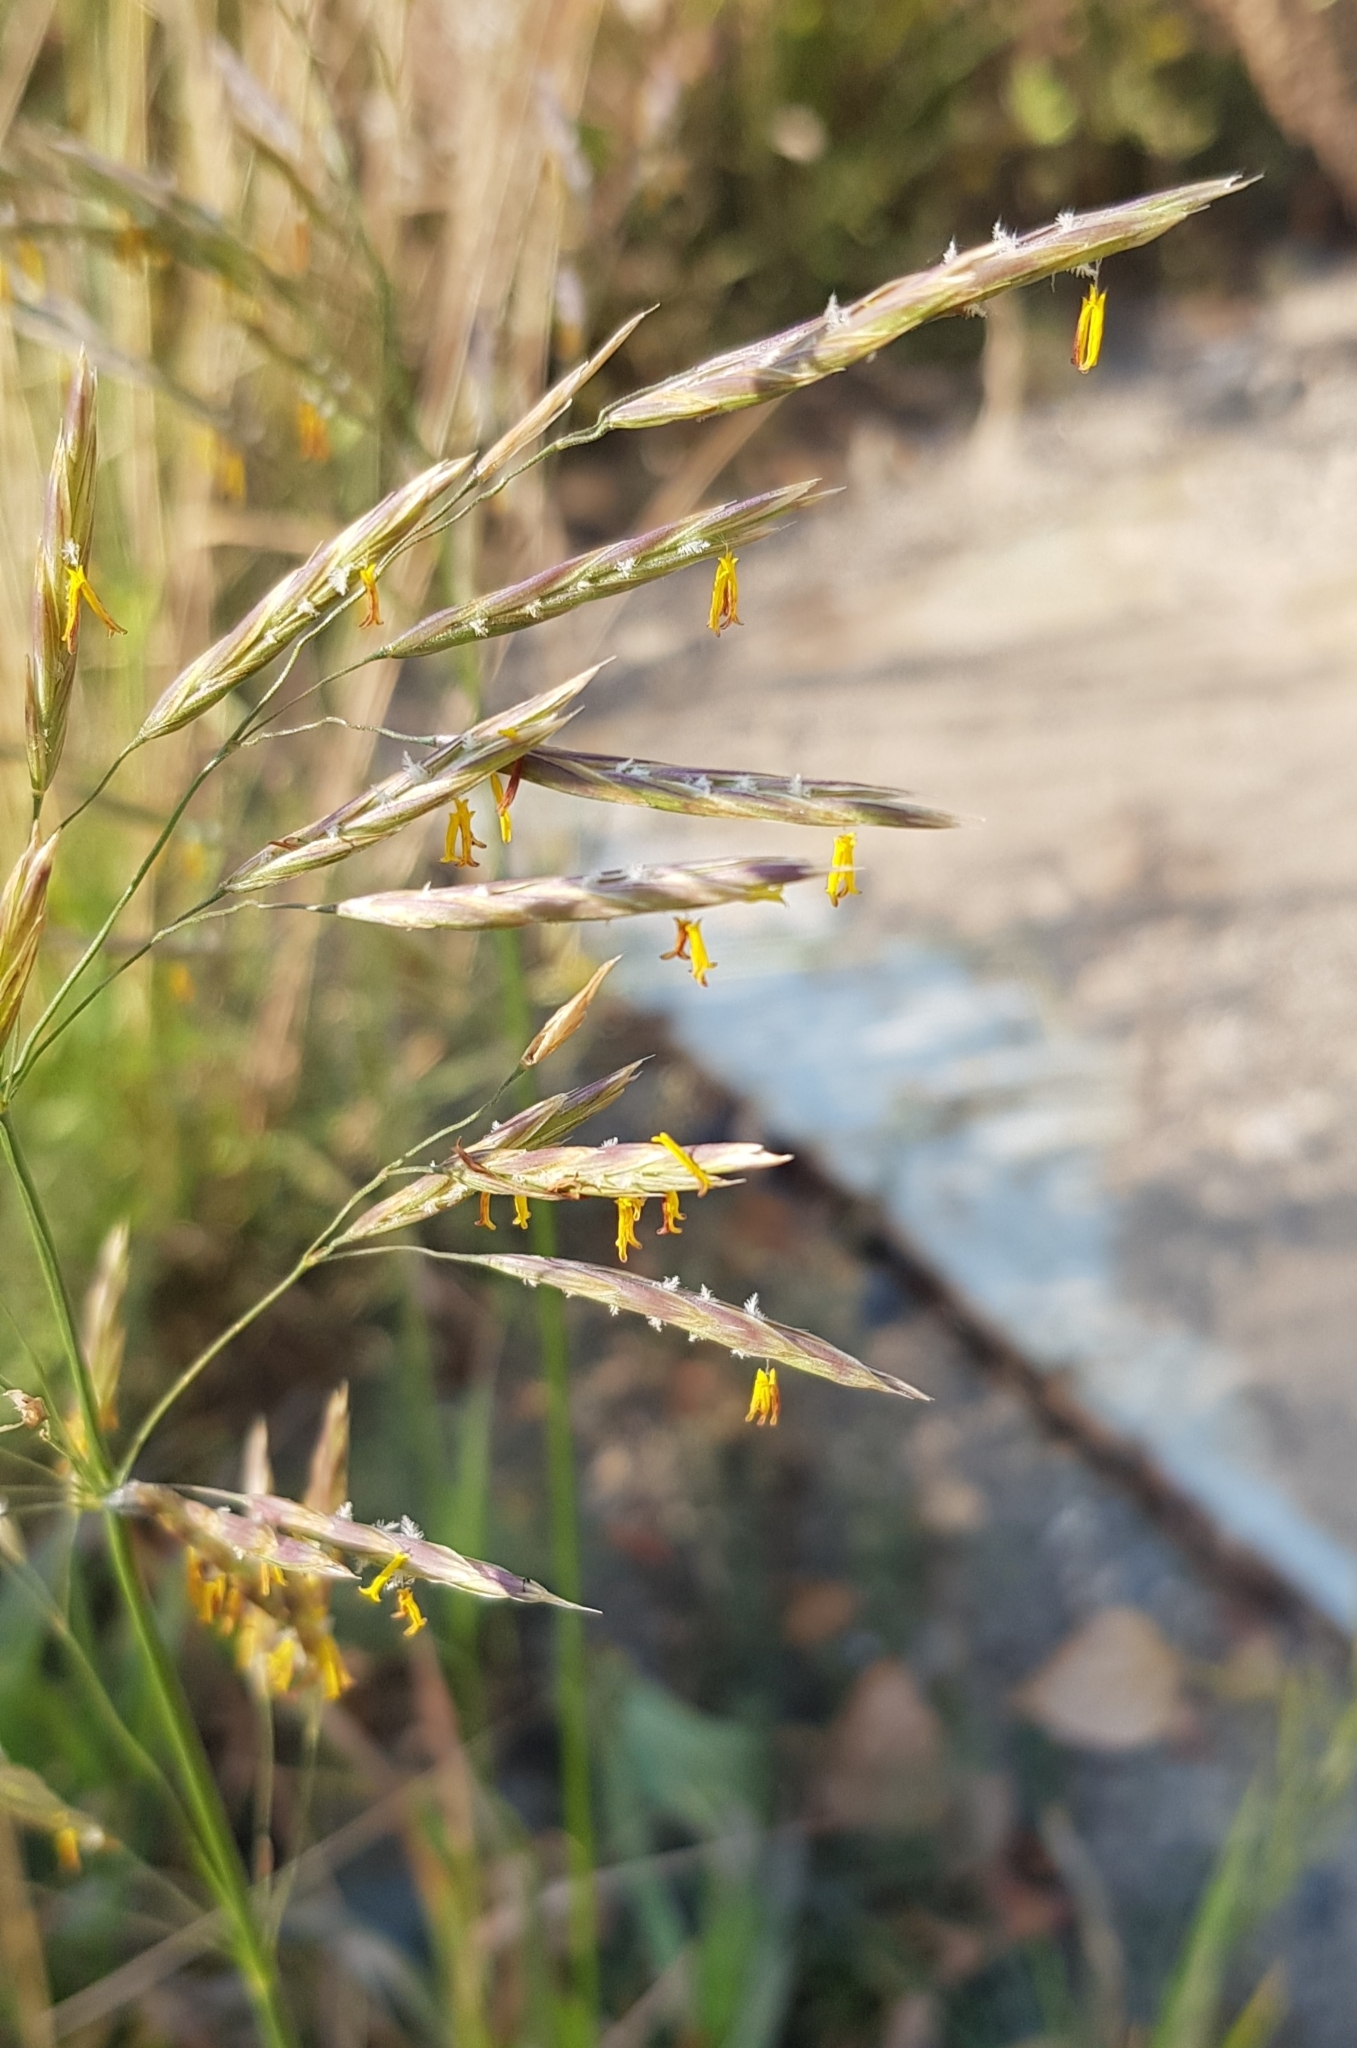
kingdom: Plantae
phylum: Tracheophyta
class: Liliopsida
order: Poales
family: Poaceae
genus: Bromus
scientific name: Bromus inermis
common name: Smooth brome
